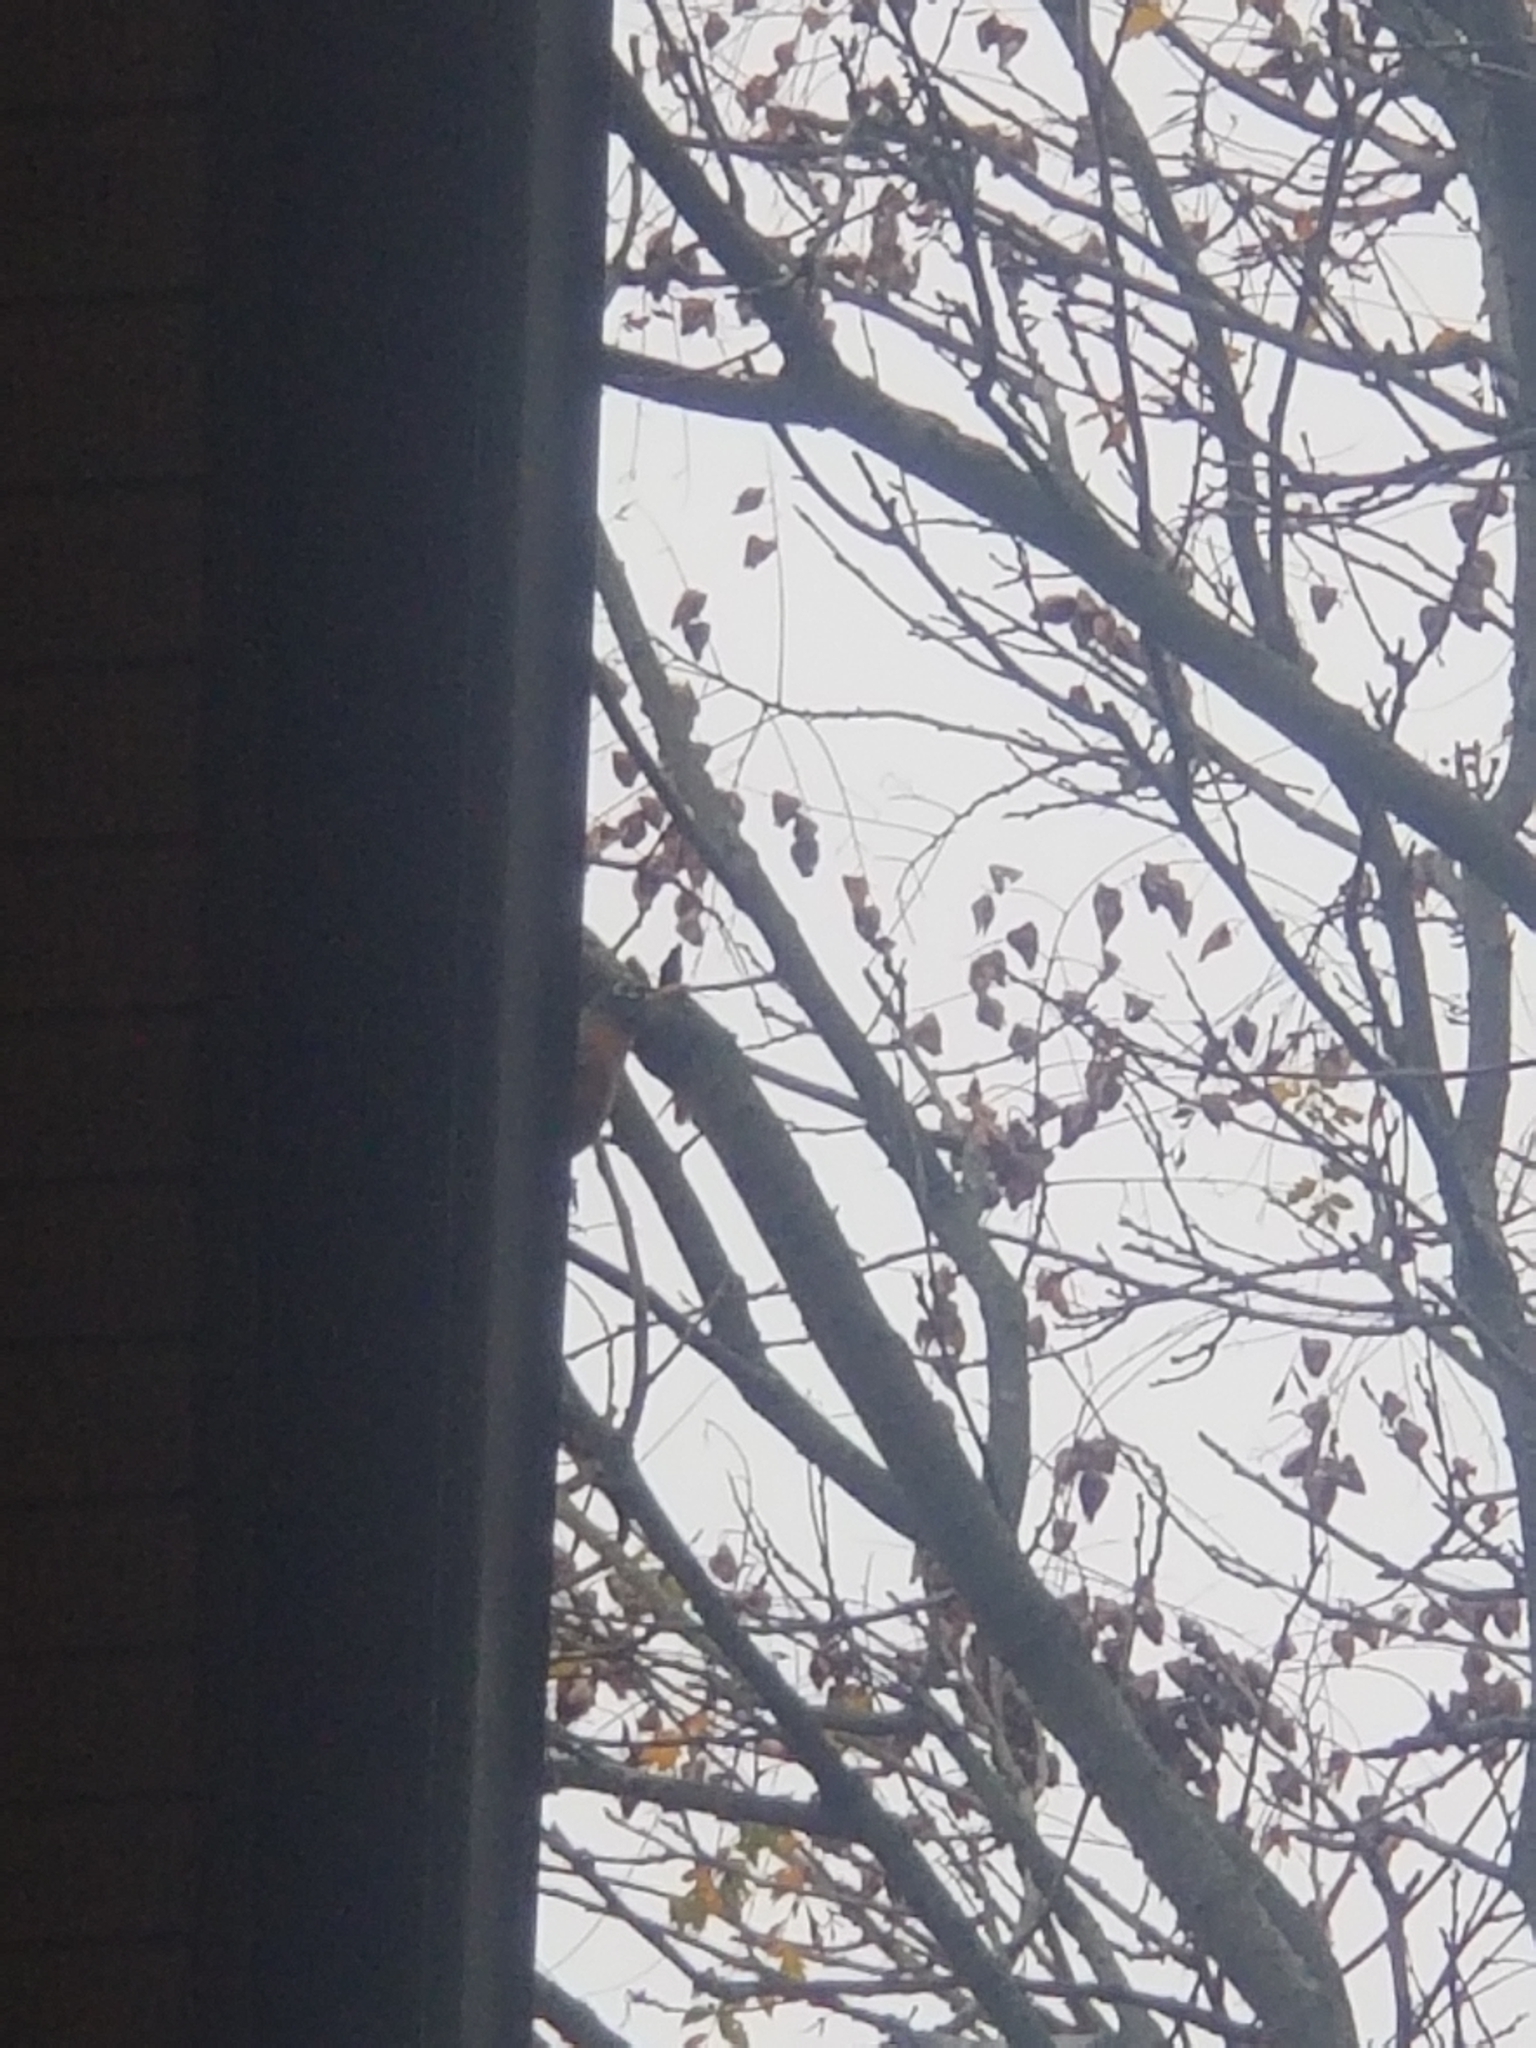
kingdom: Animalia
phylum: Chordata
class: Aves
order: Passeriformes
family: Turdidae
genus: Turdus
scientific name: Turdus migratorius
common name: American robin
